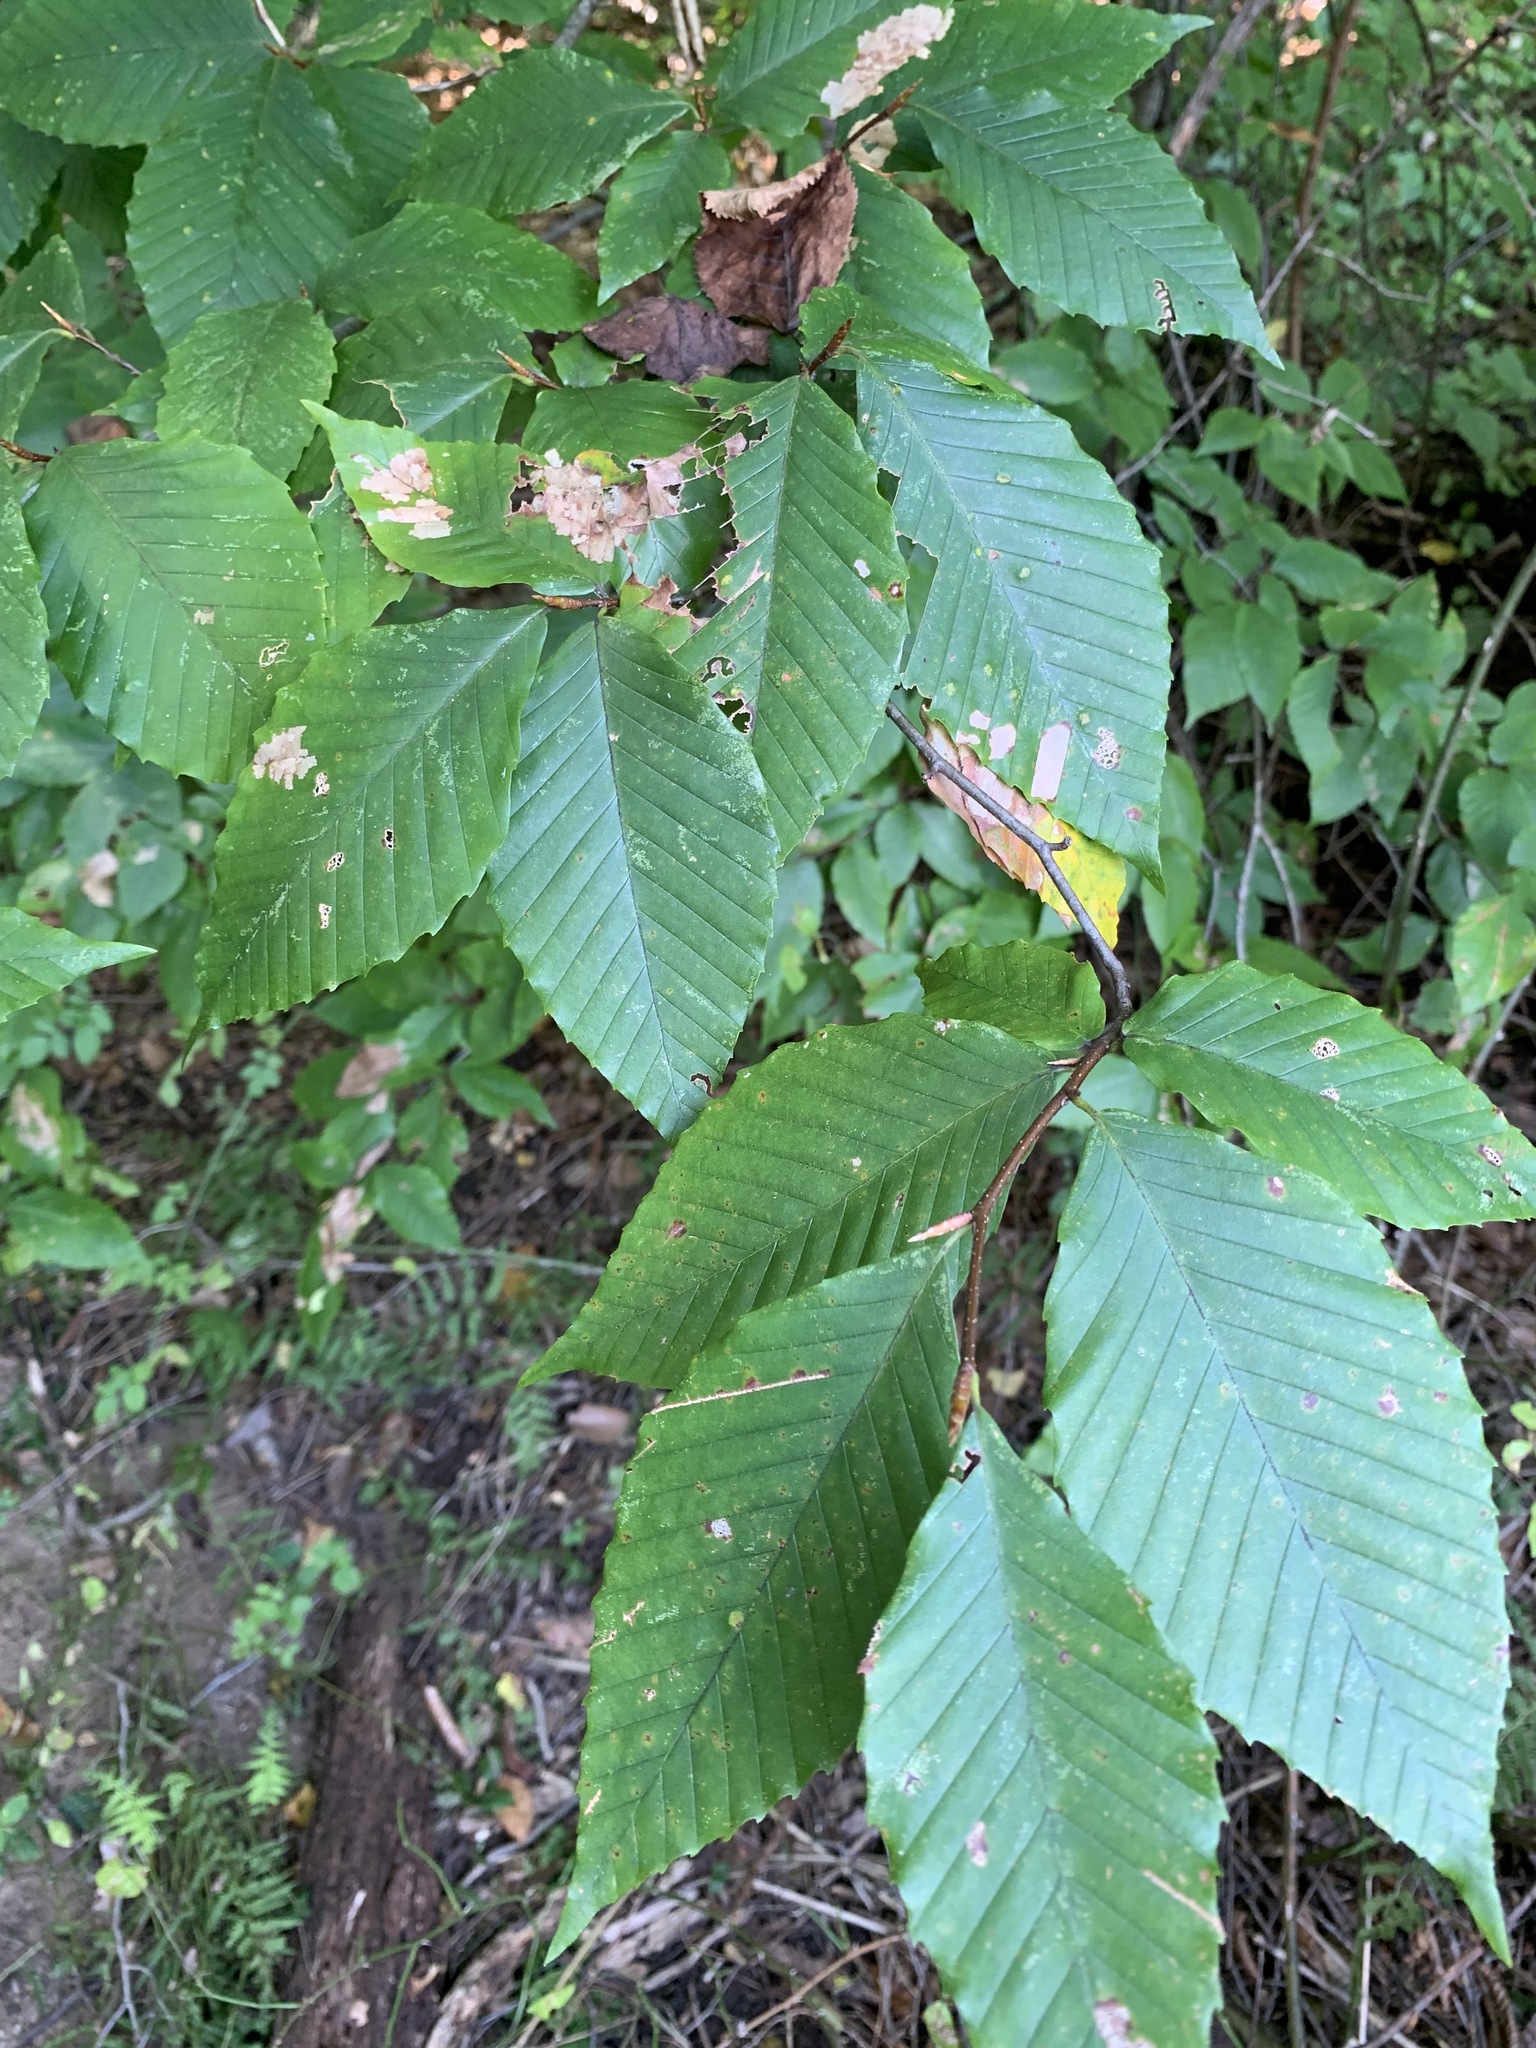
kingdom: Plantae
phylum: Tracheophyta
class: Magnoliopsida
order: Fagales
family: Fagaceae
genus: Fagus
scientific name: Fagus grandifolia
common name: American beech
